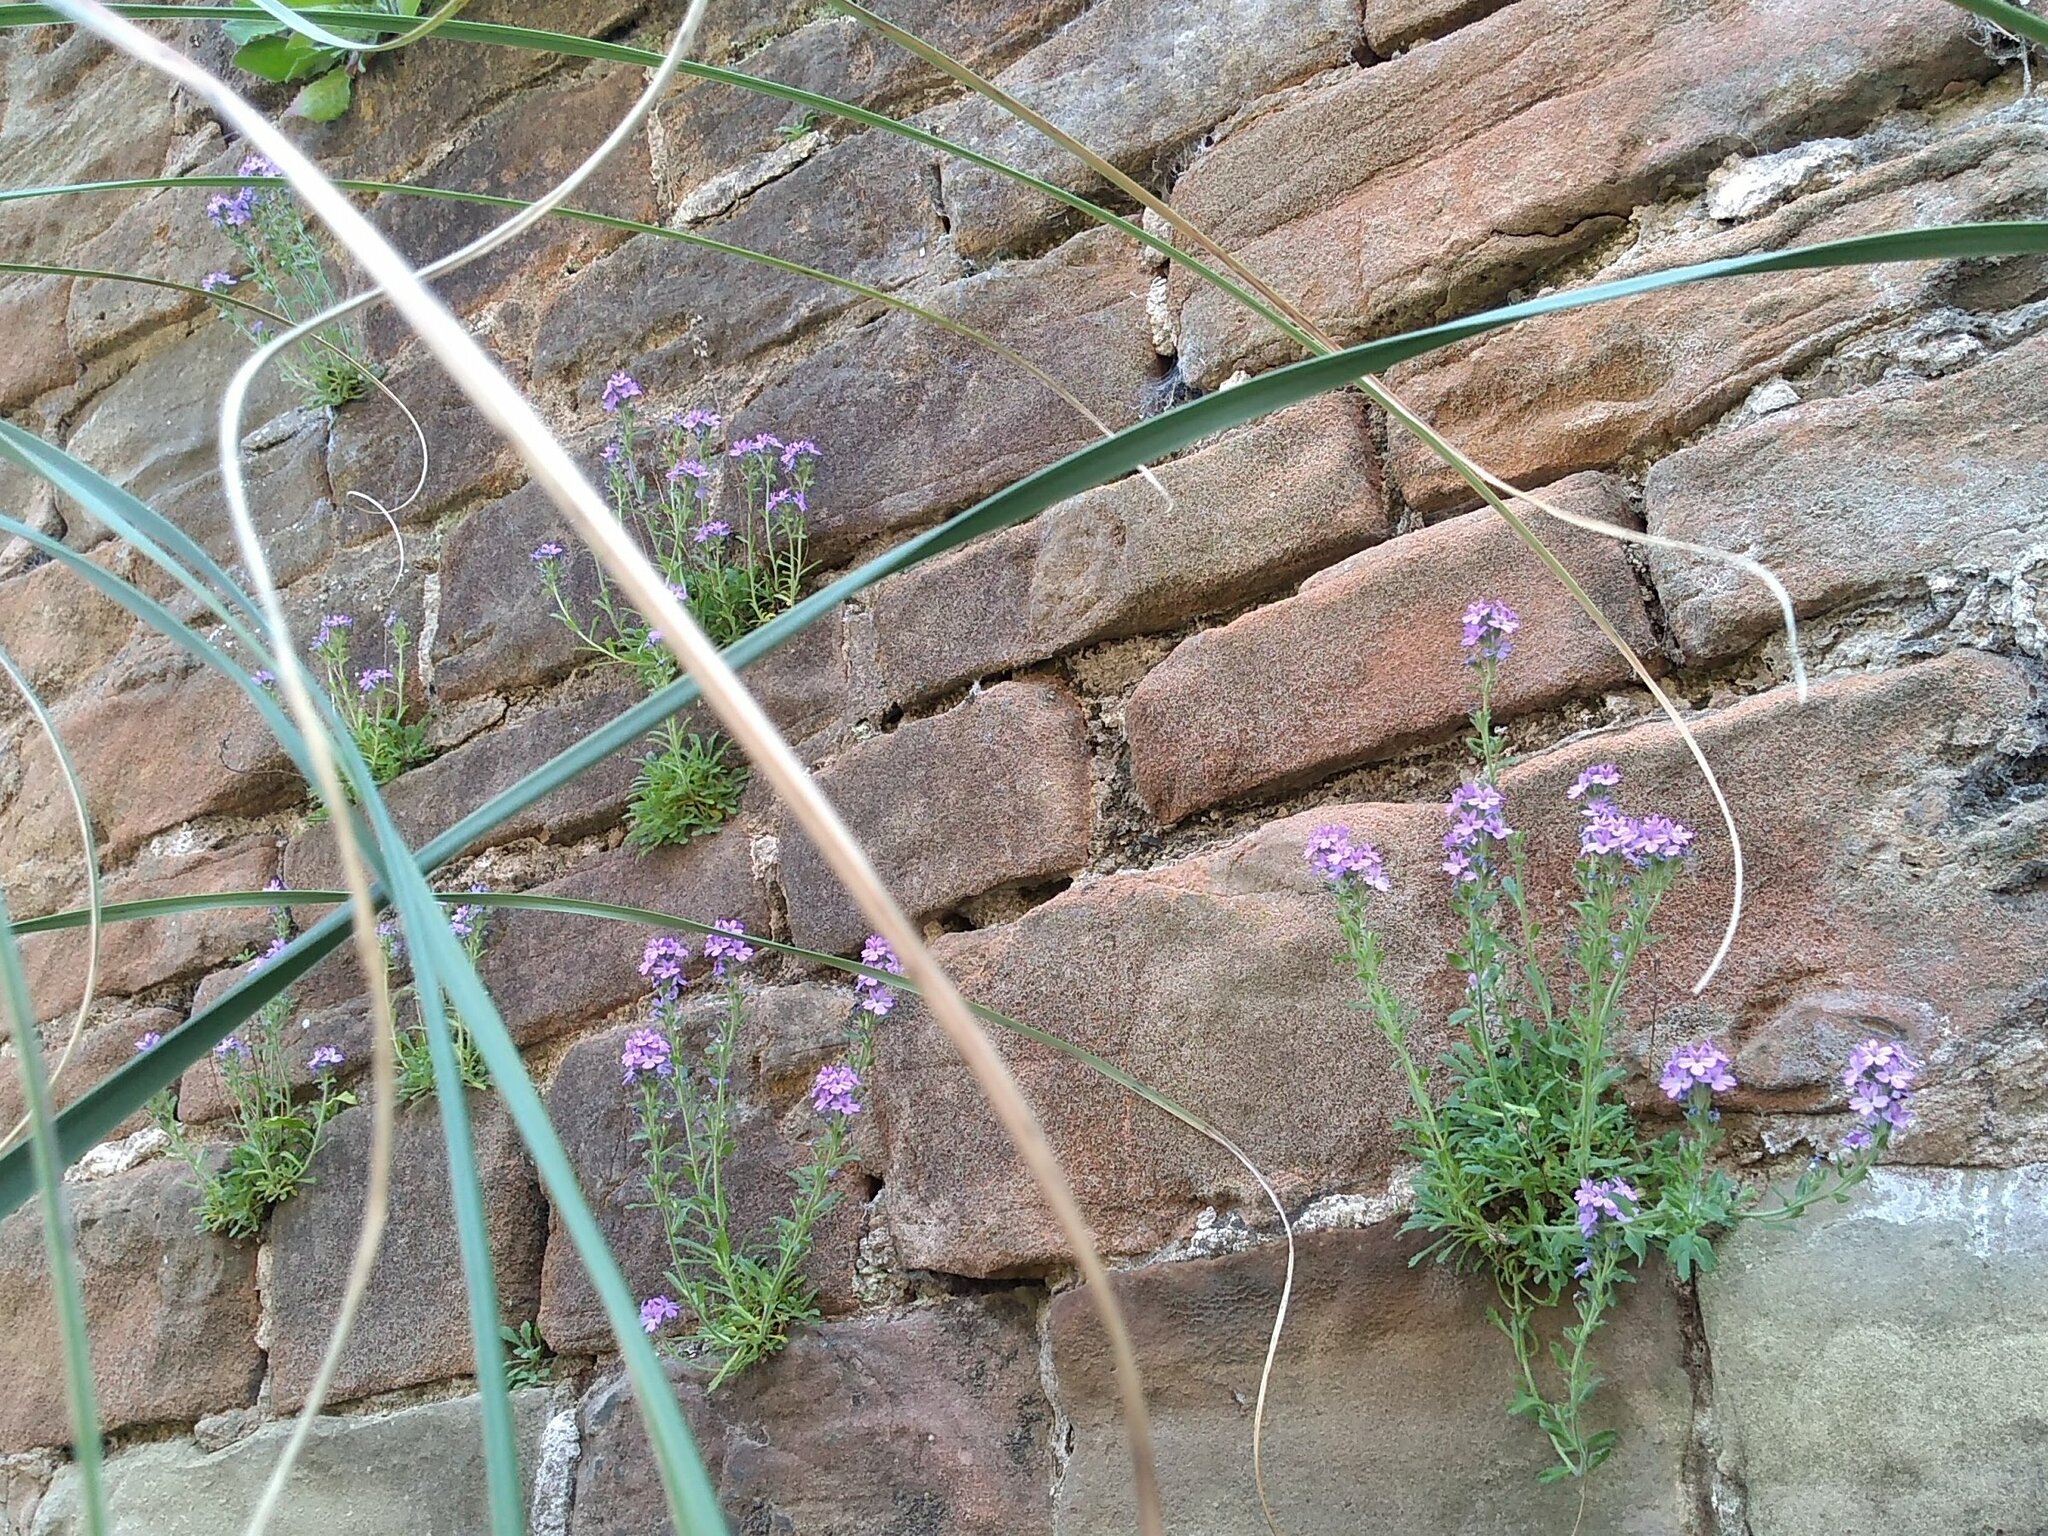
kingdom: Plantae
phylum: Tracheophyta
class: Magnoliopsida
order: Lamiales
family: Plantaginaceae
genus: Erinus
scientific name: Erinus alpinus
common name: Fairy foxglove
